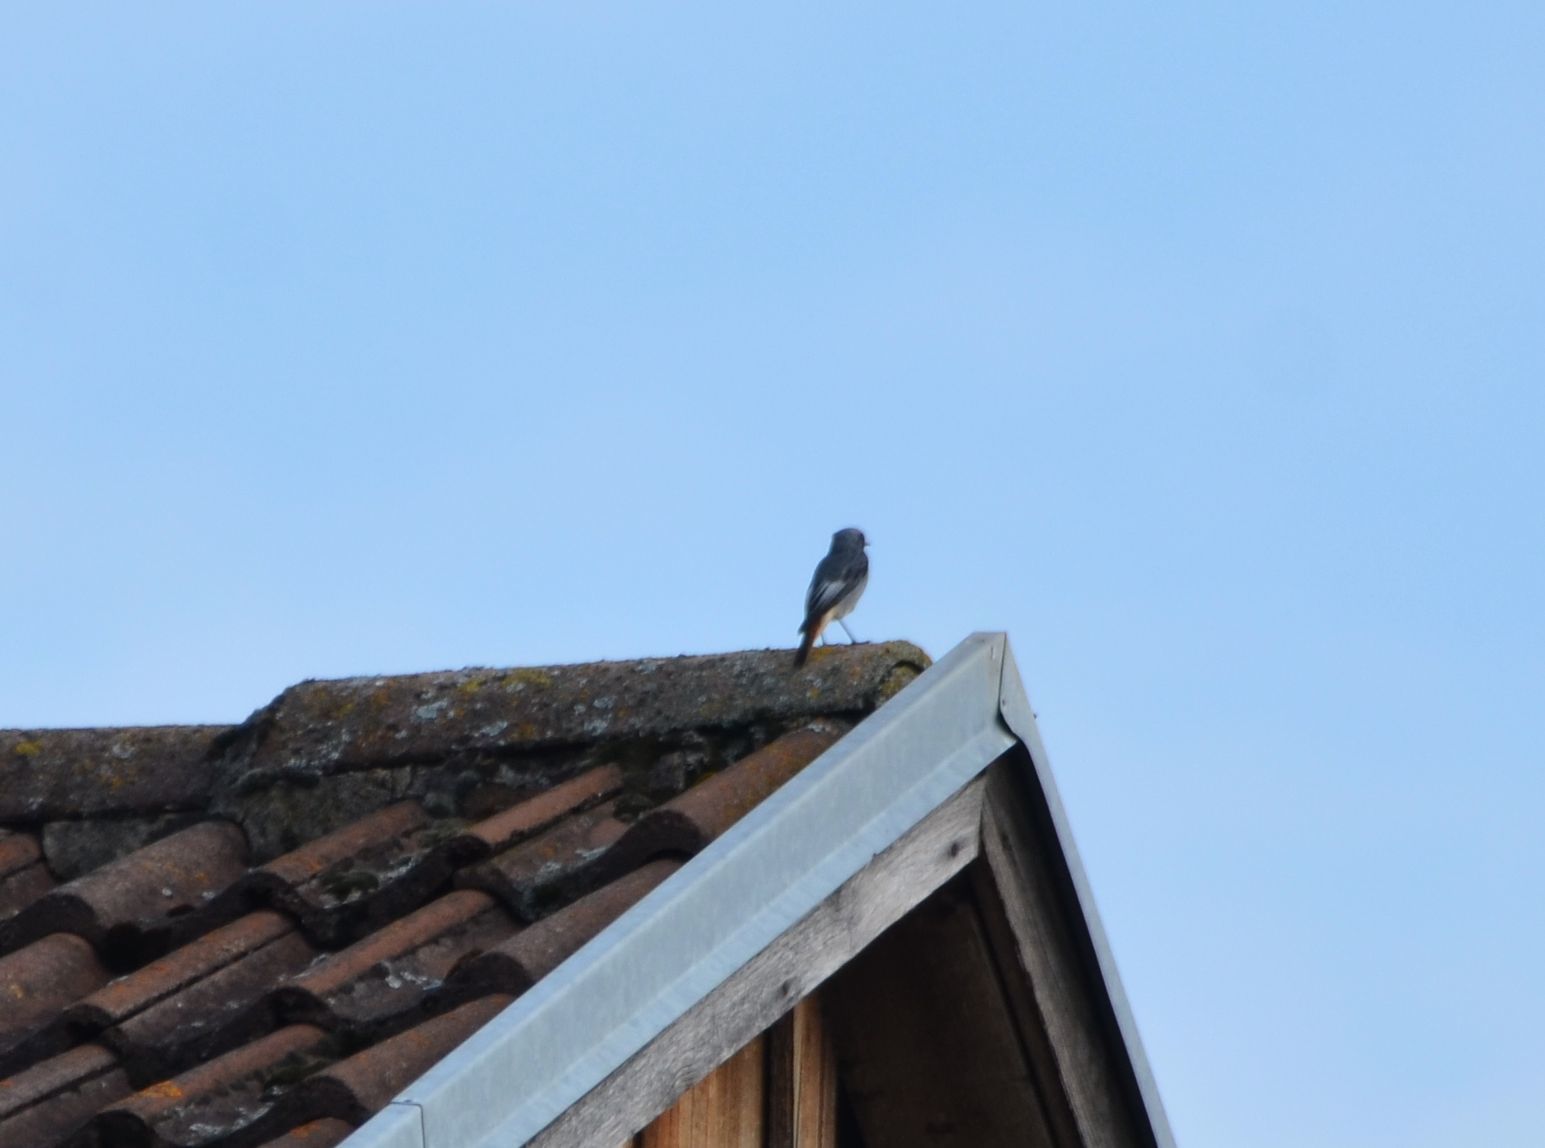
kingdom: Animalia
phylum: Chordata
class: Aves
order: Passeriformes
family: Muscicapidae
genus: Phoenicurus
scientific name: Phoenicurus ochruros
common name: Black redstart
